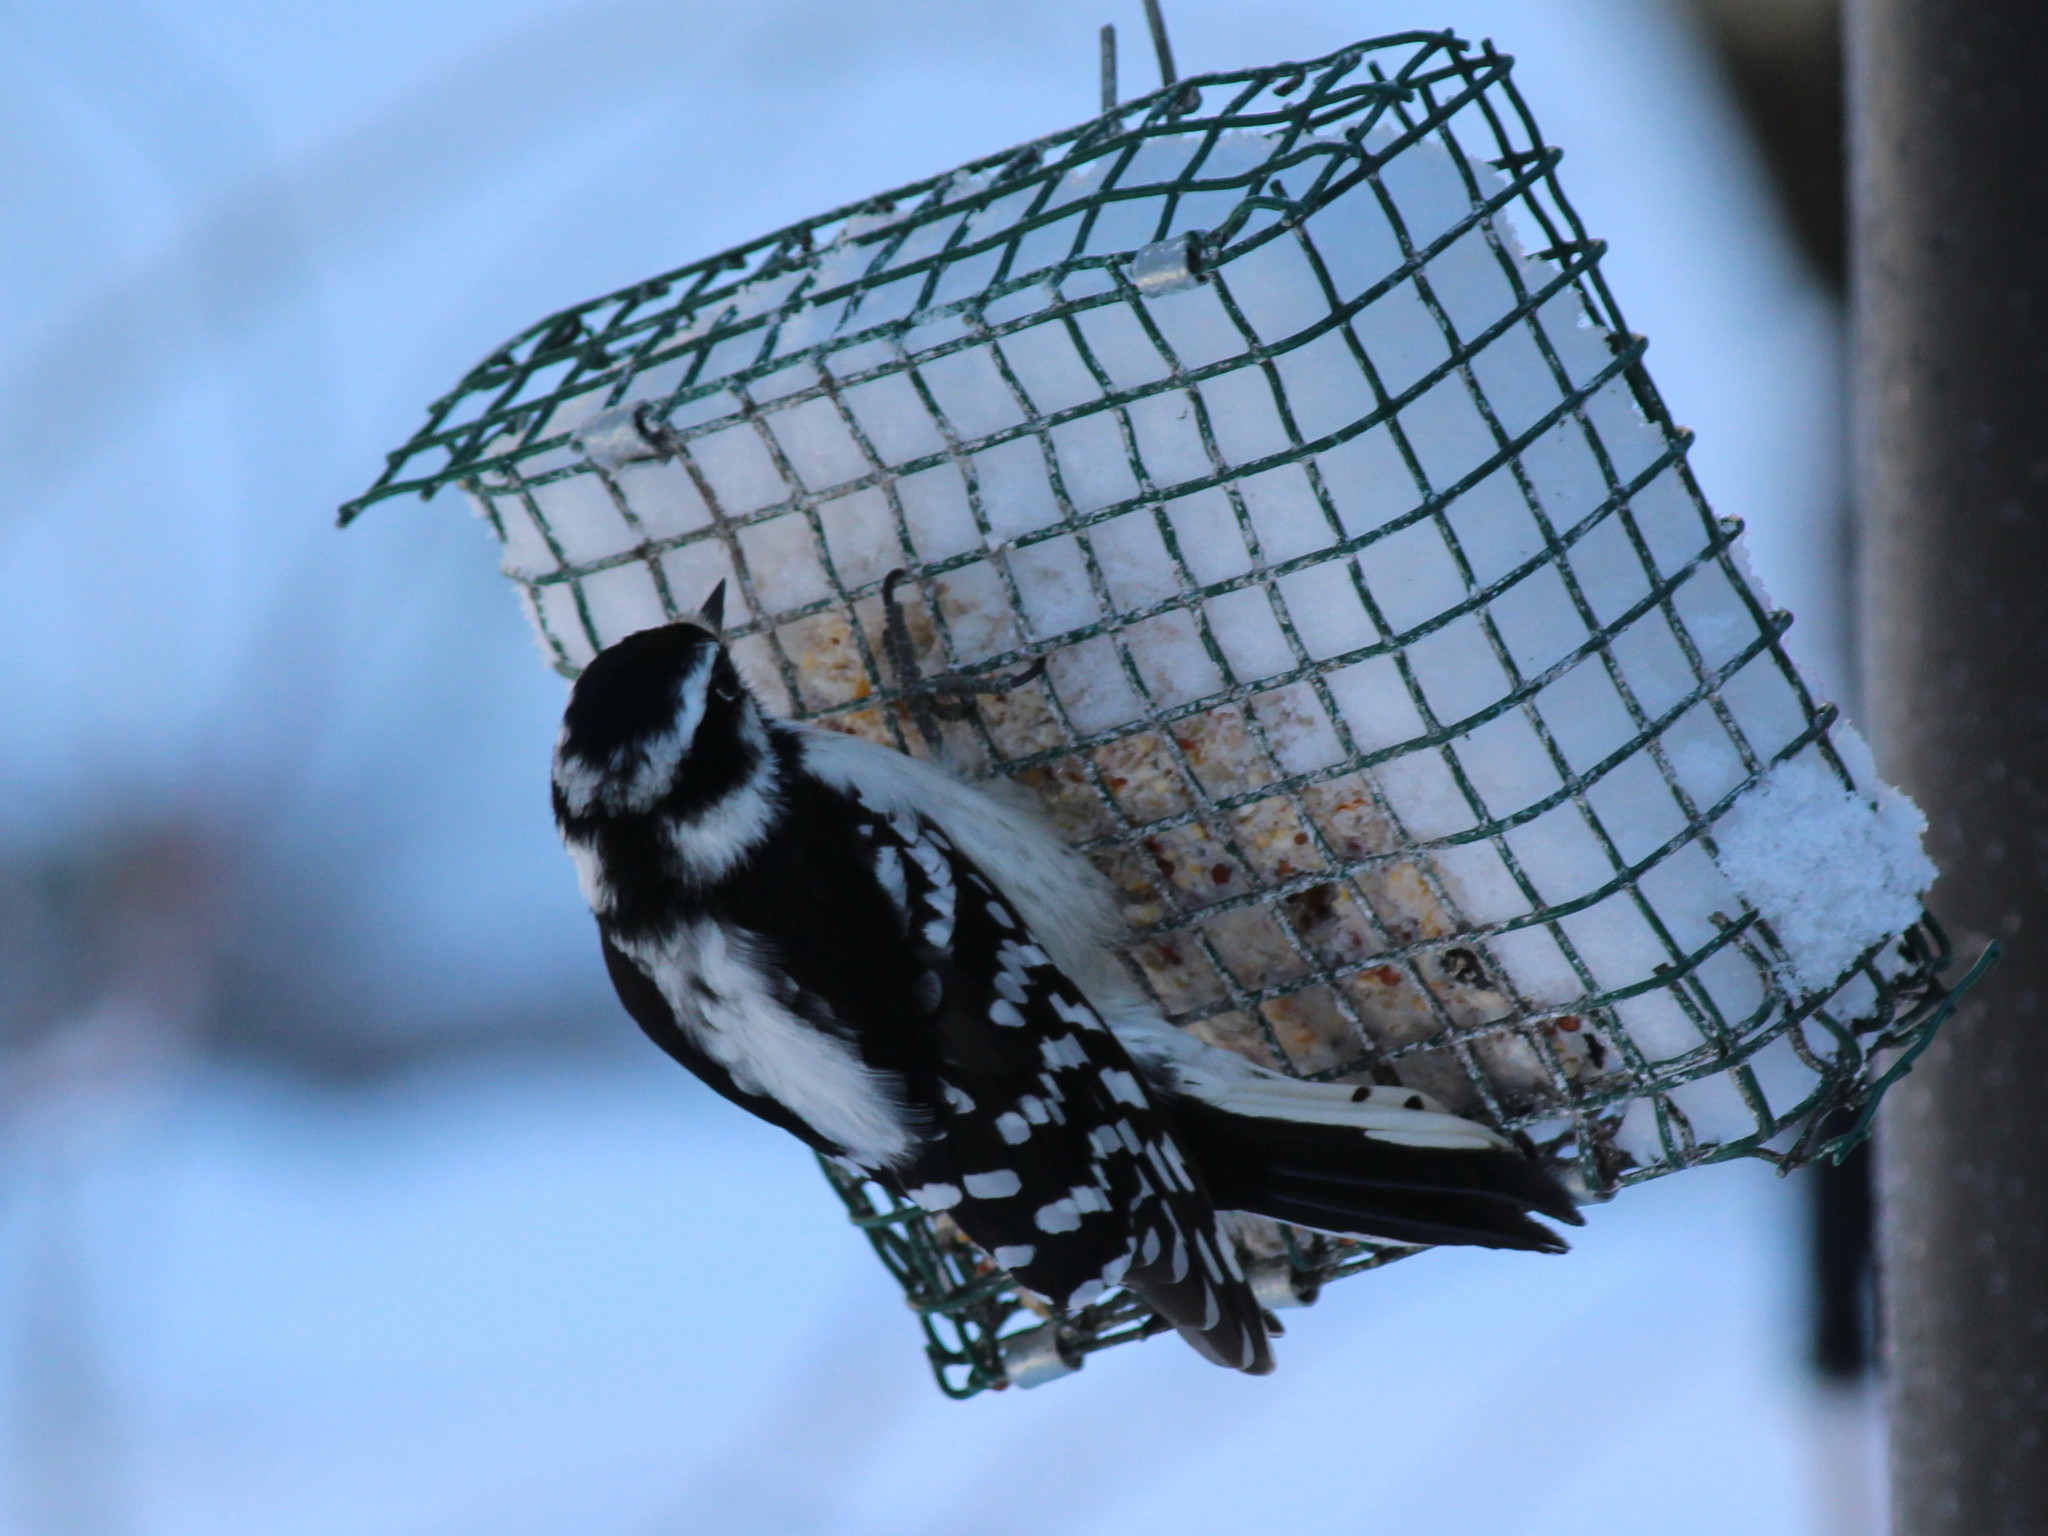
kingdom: Animalia
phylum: Chordata
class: Aves
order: Piciformes
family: Picidae
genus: Dryobates
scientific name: Dryobates pubescens
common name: Downy woodpecker
